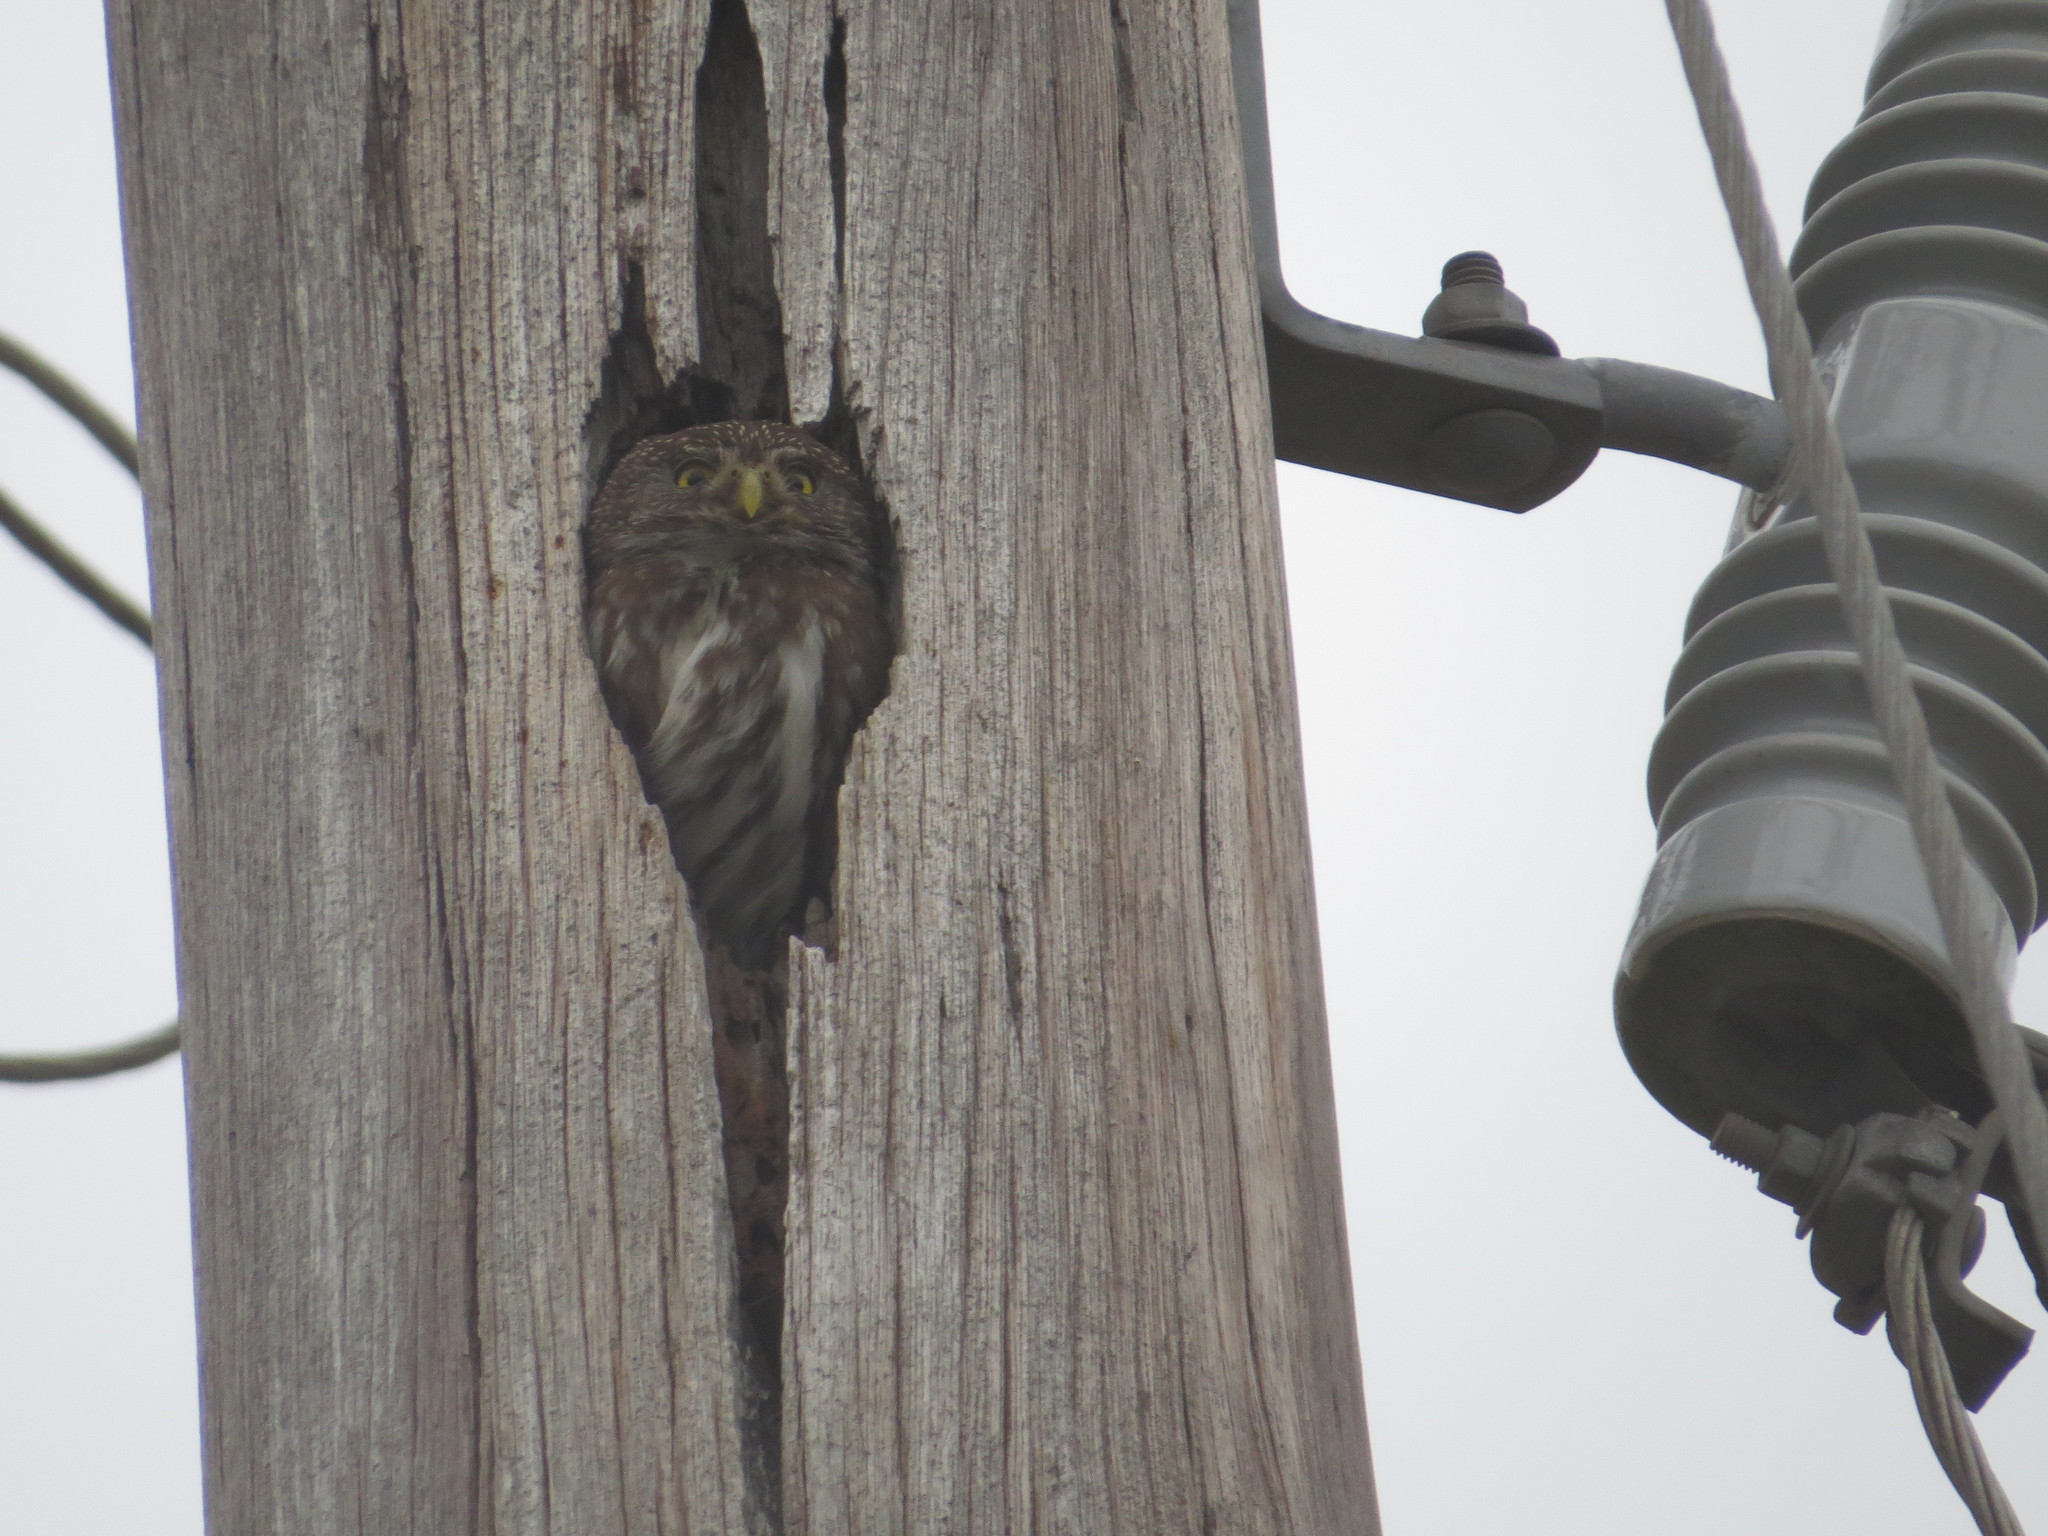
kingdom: Animalia
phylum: Chordata
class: Aves
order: Strigiformes
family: Strigidae
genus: Glaucidium
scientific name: Glaucidium brasilianum
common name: Ferruginous pygmy-owl
